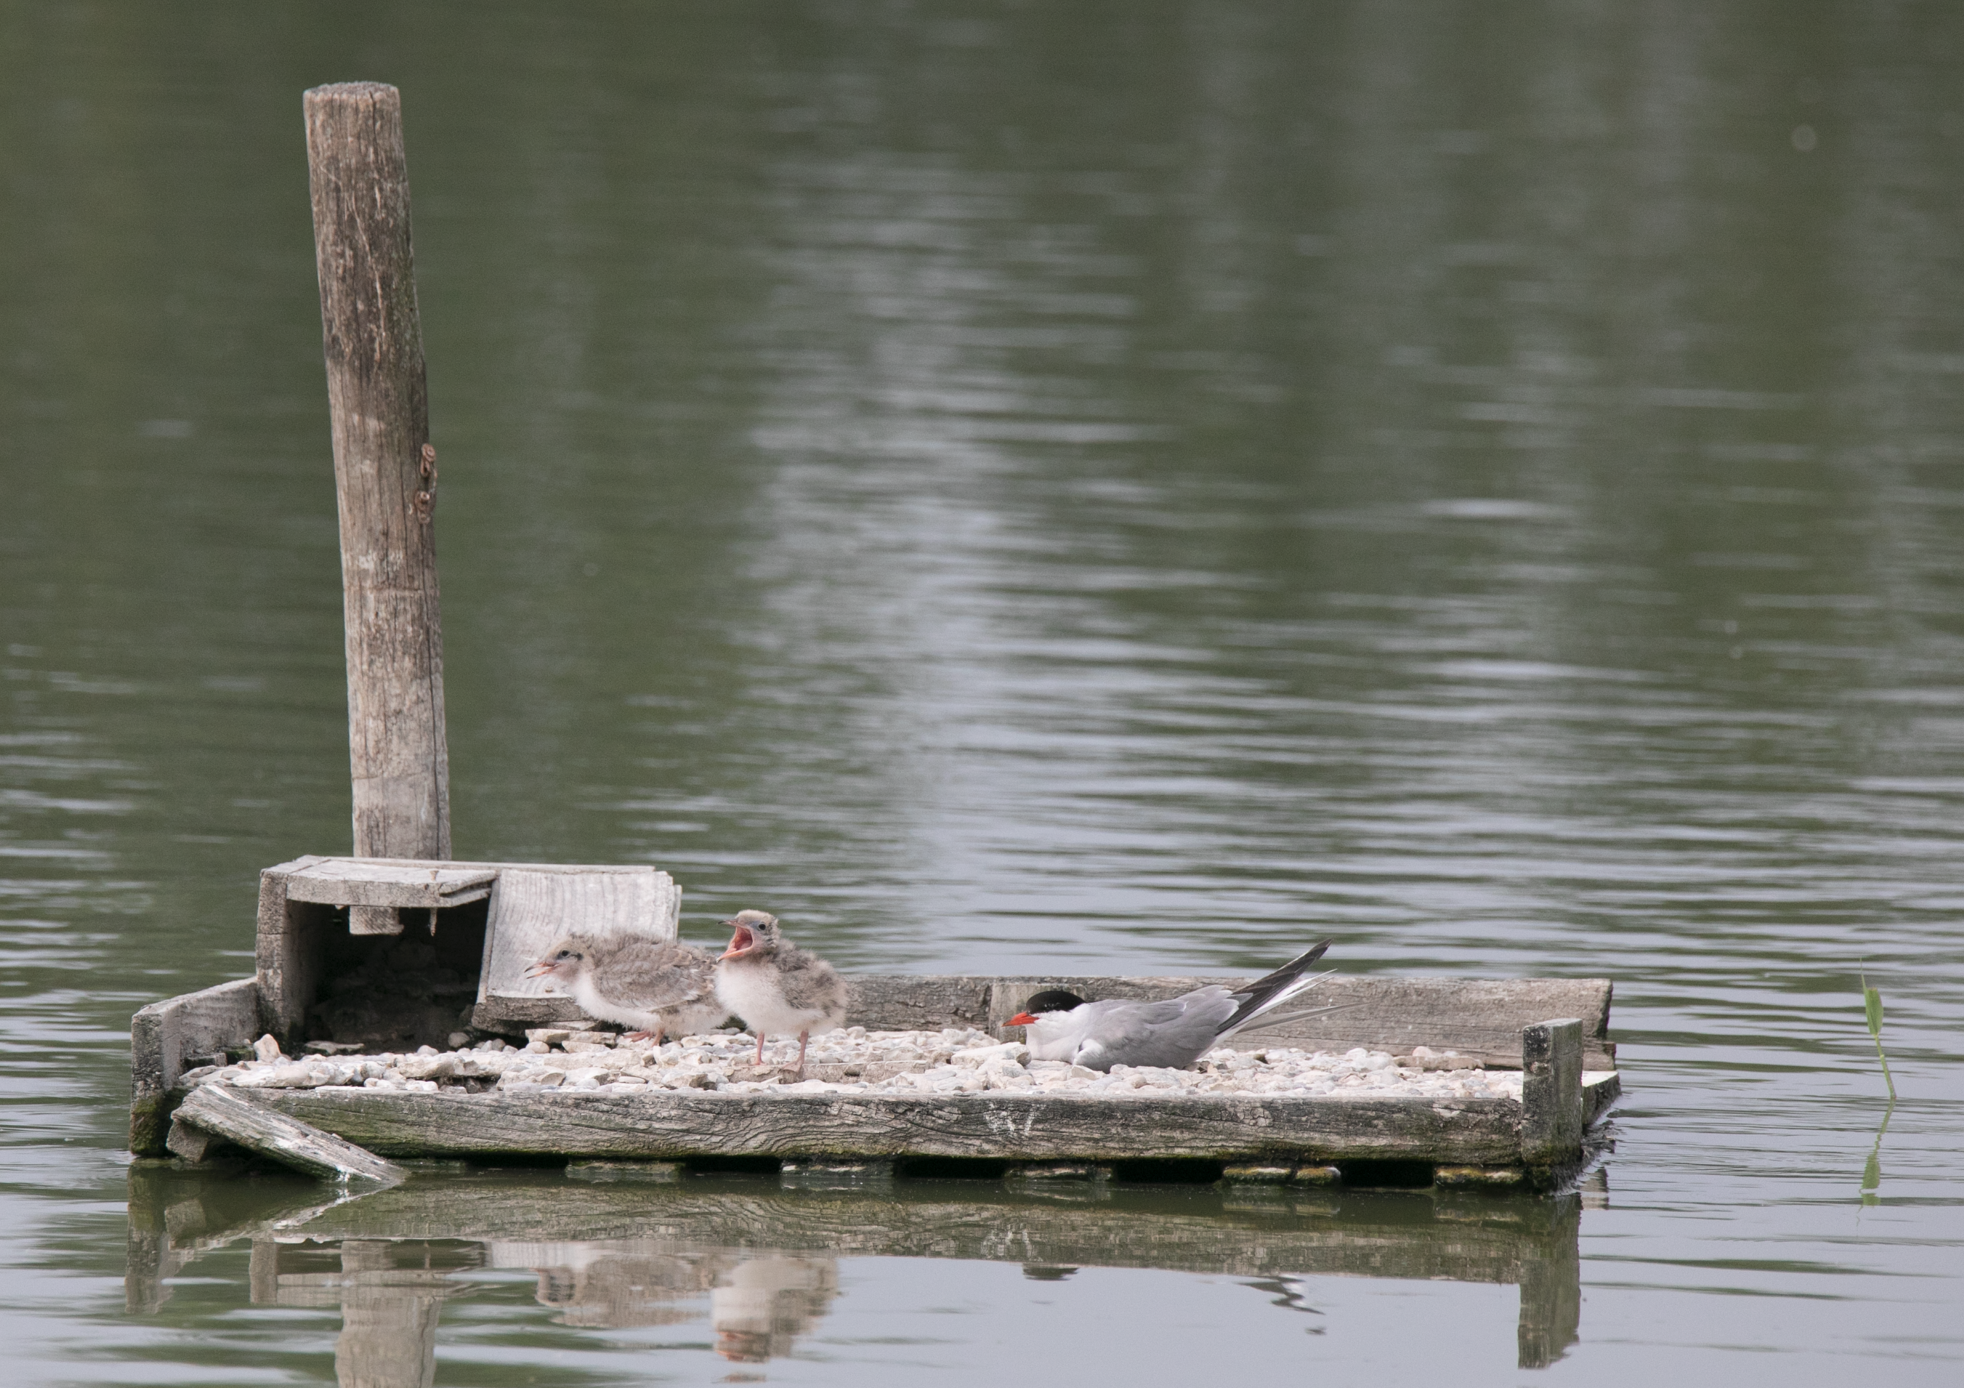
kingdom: Animalia
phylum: Chordata
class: Aves
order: Charadriiformes
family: Laridae
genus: Sterna
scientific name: Sterna hirundo
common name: Common tern
